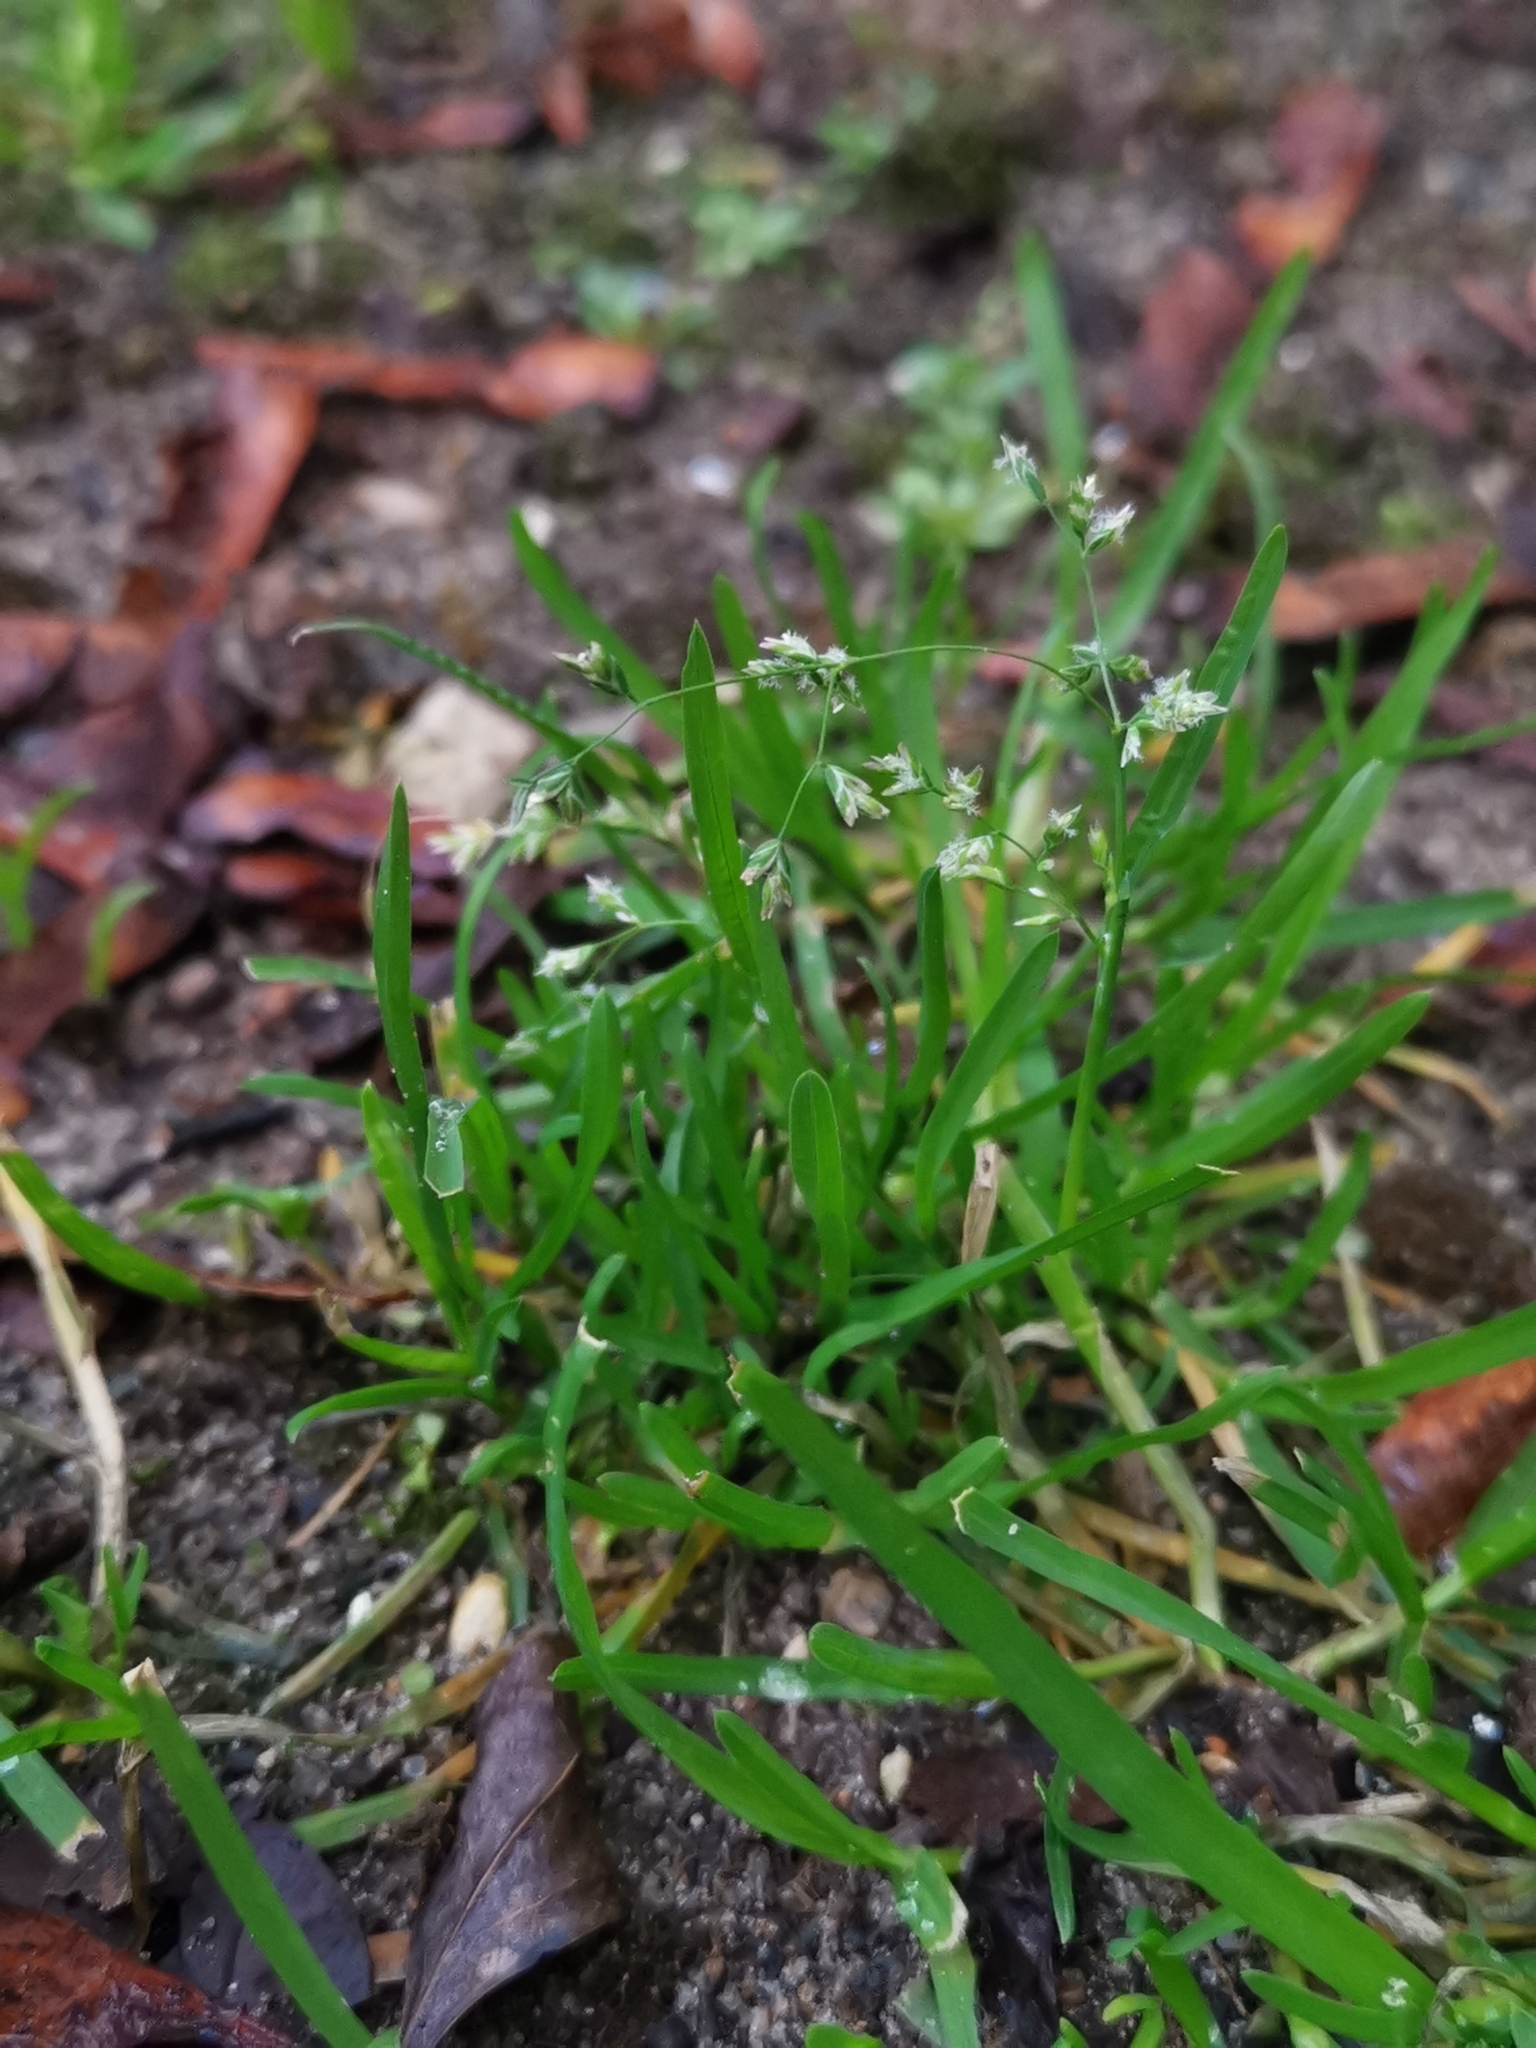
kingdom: Plantae
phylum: Tracheophyta
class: Liliopsida
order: Poales
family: Poaceae
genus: Poa
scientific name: Poa annua
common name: Annual bluegrass
